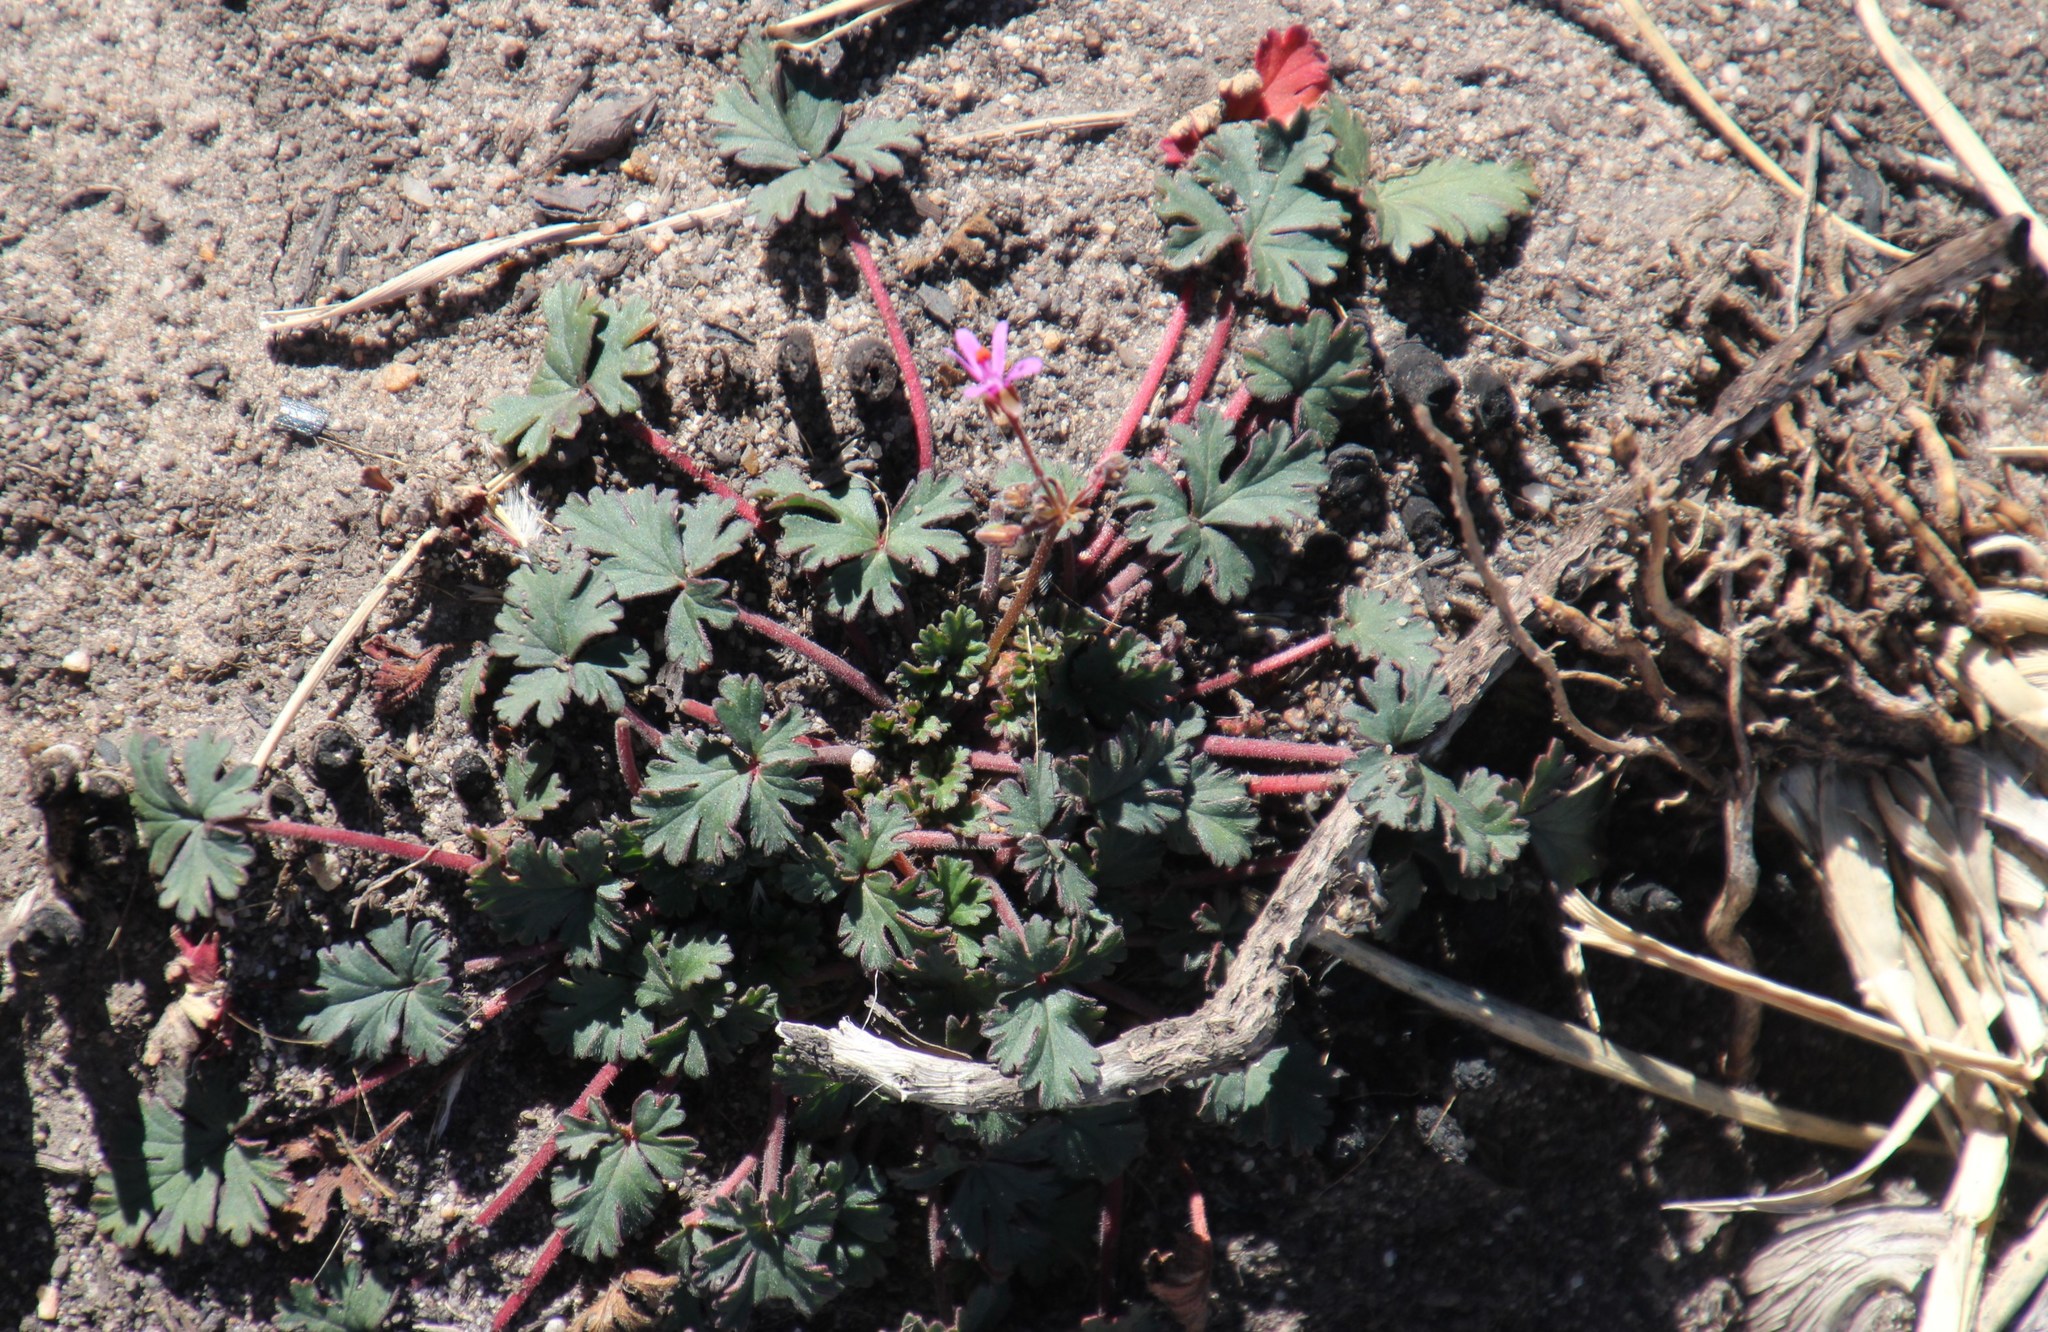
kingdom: Plantae
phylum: Tracheophyta
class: Magnoliopsida
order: Geraniales
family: Geraniaceae
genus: Pelargonium
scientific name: Pelargonium grossularioides
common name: Gooseberry geranium
